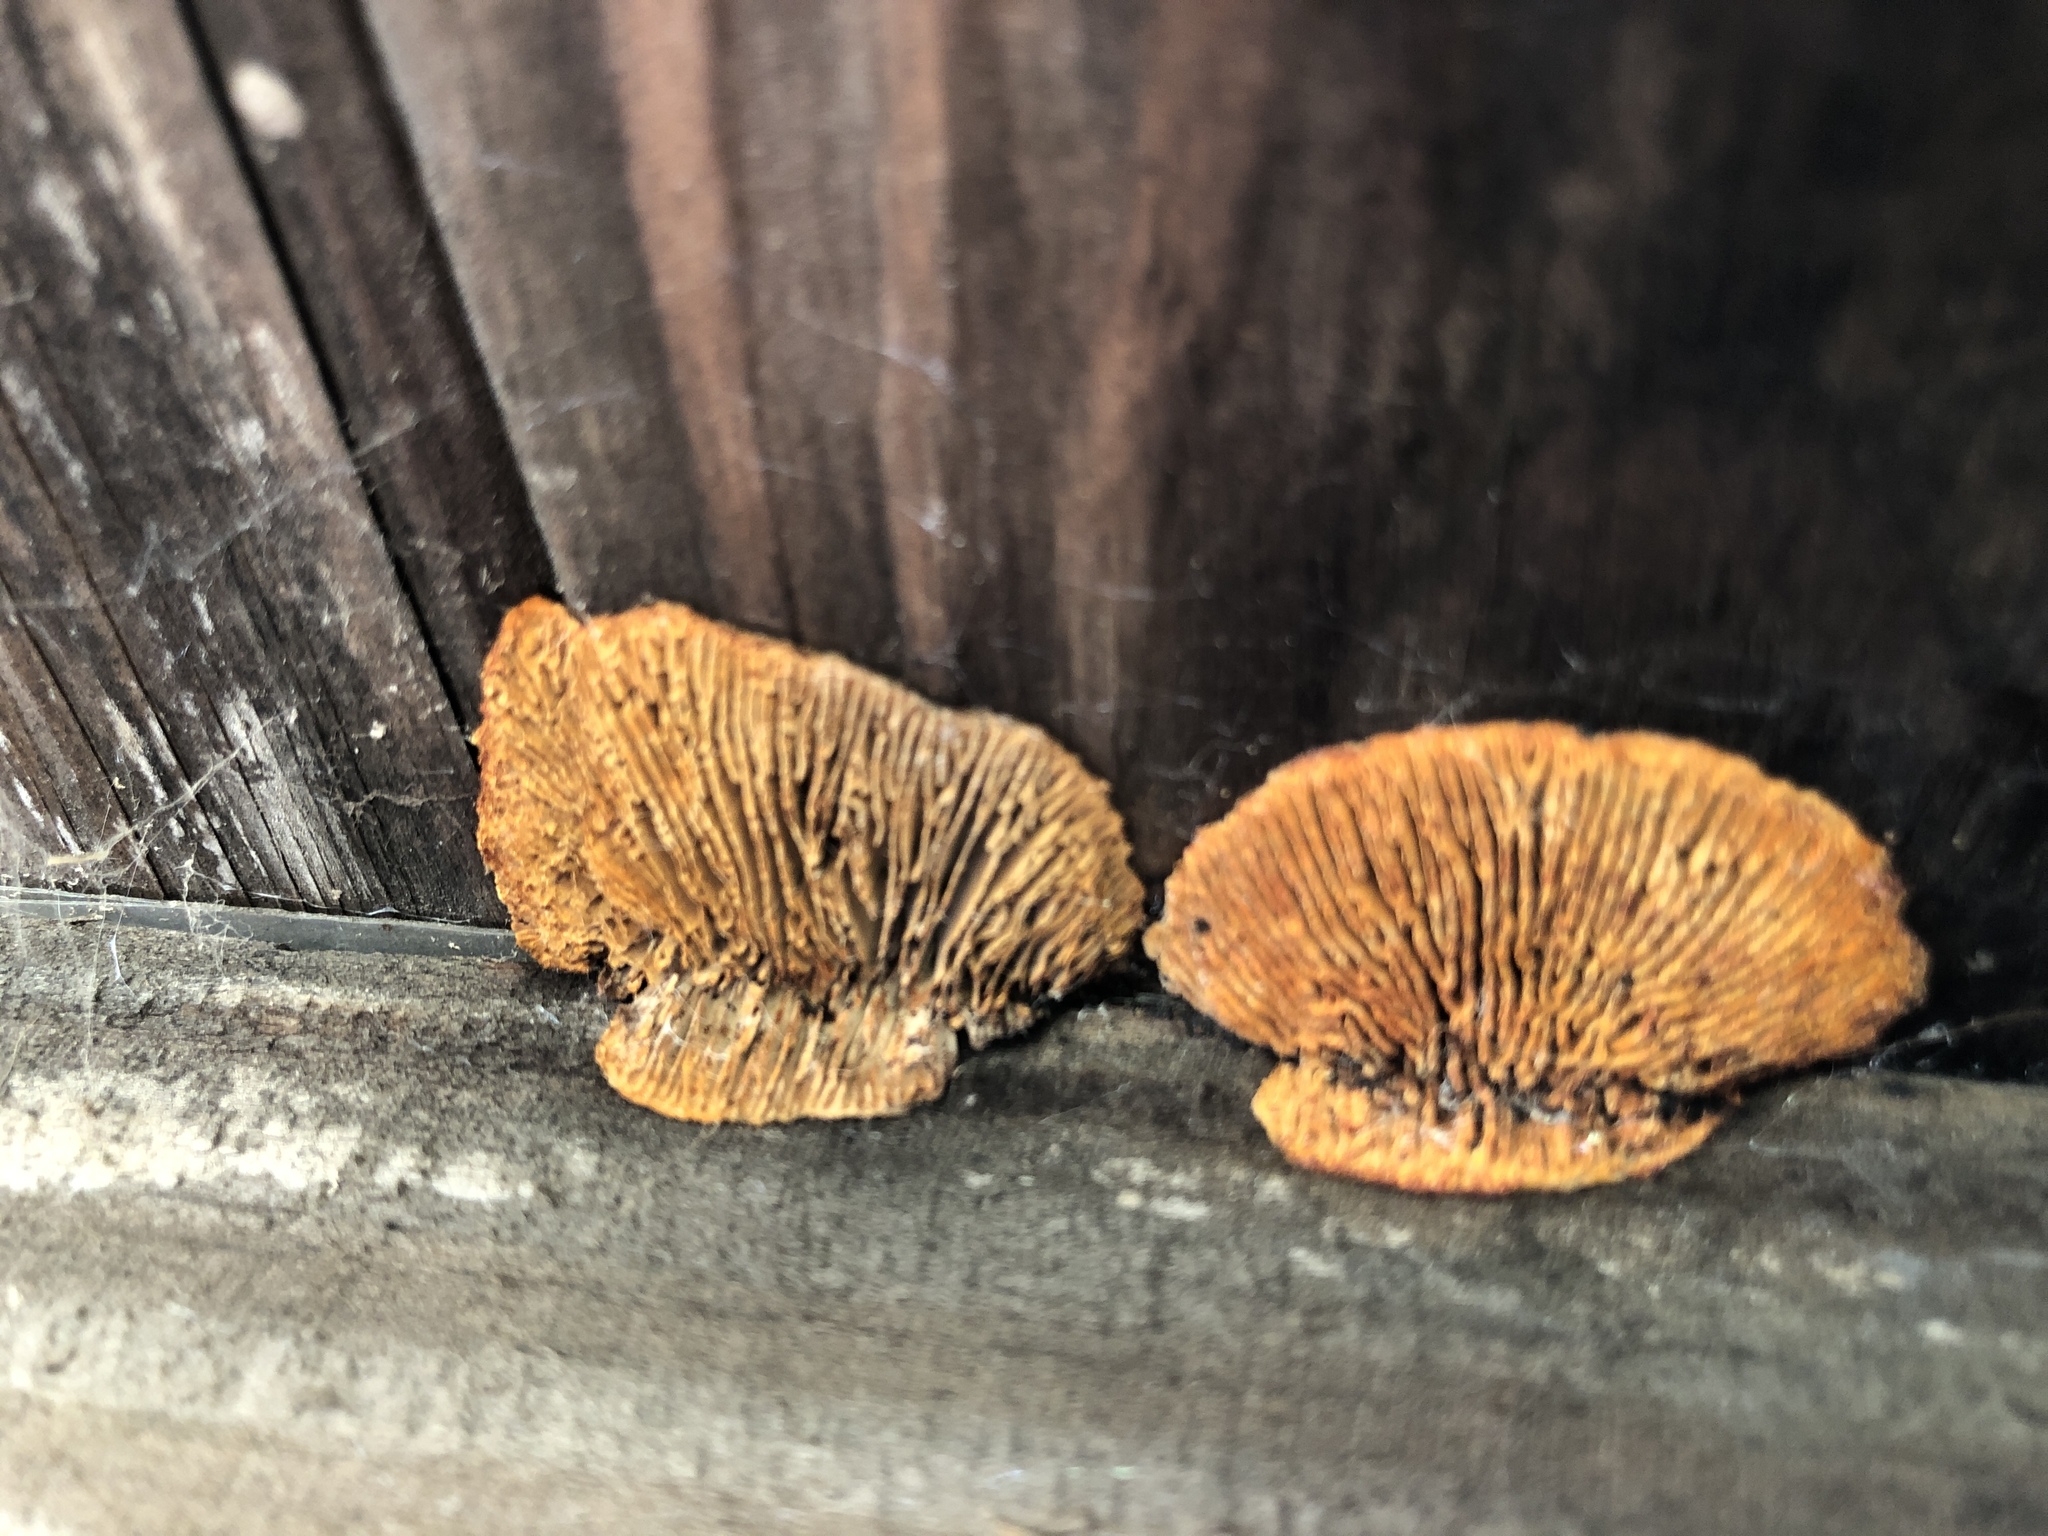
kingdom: Fungi
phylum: Basidiomycota
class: Agaricomycetes
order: Gloeophyllales
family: Gloeophyllaceae
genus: Gloeophyllum
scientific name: Gloeophyllum sepiarium
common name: Conifer mazegill
